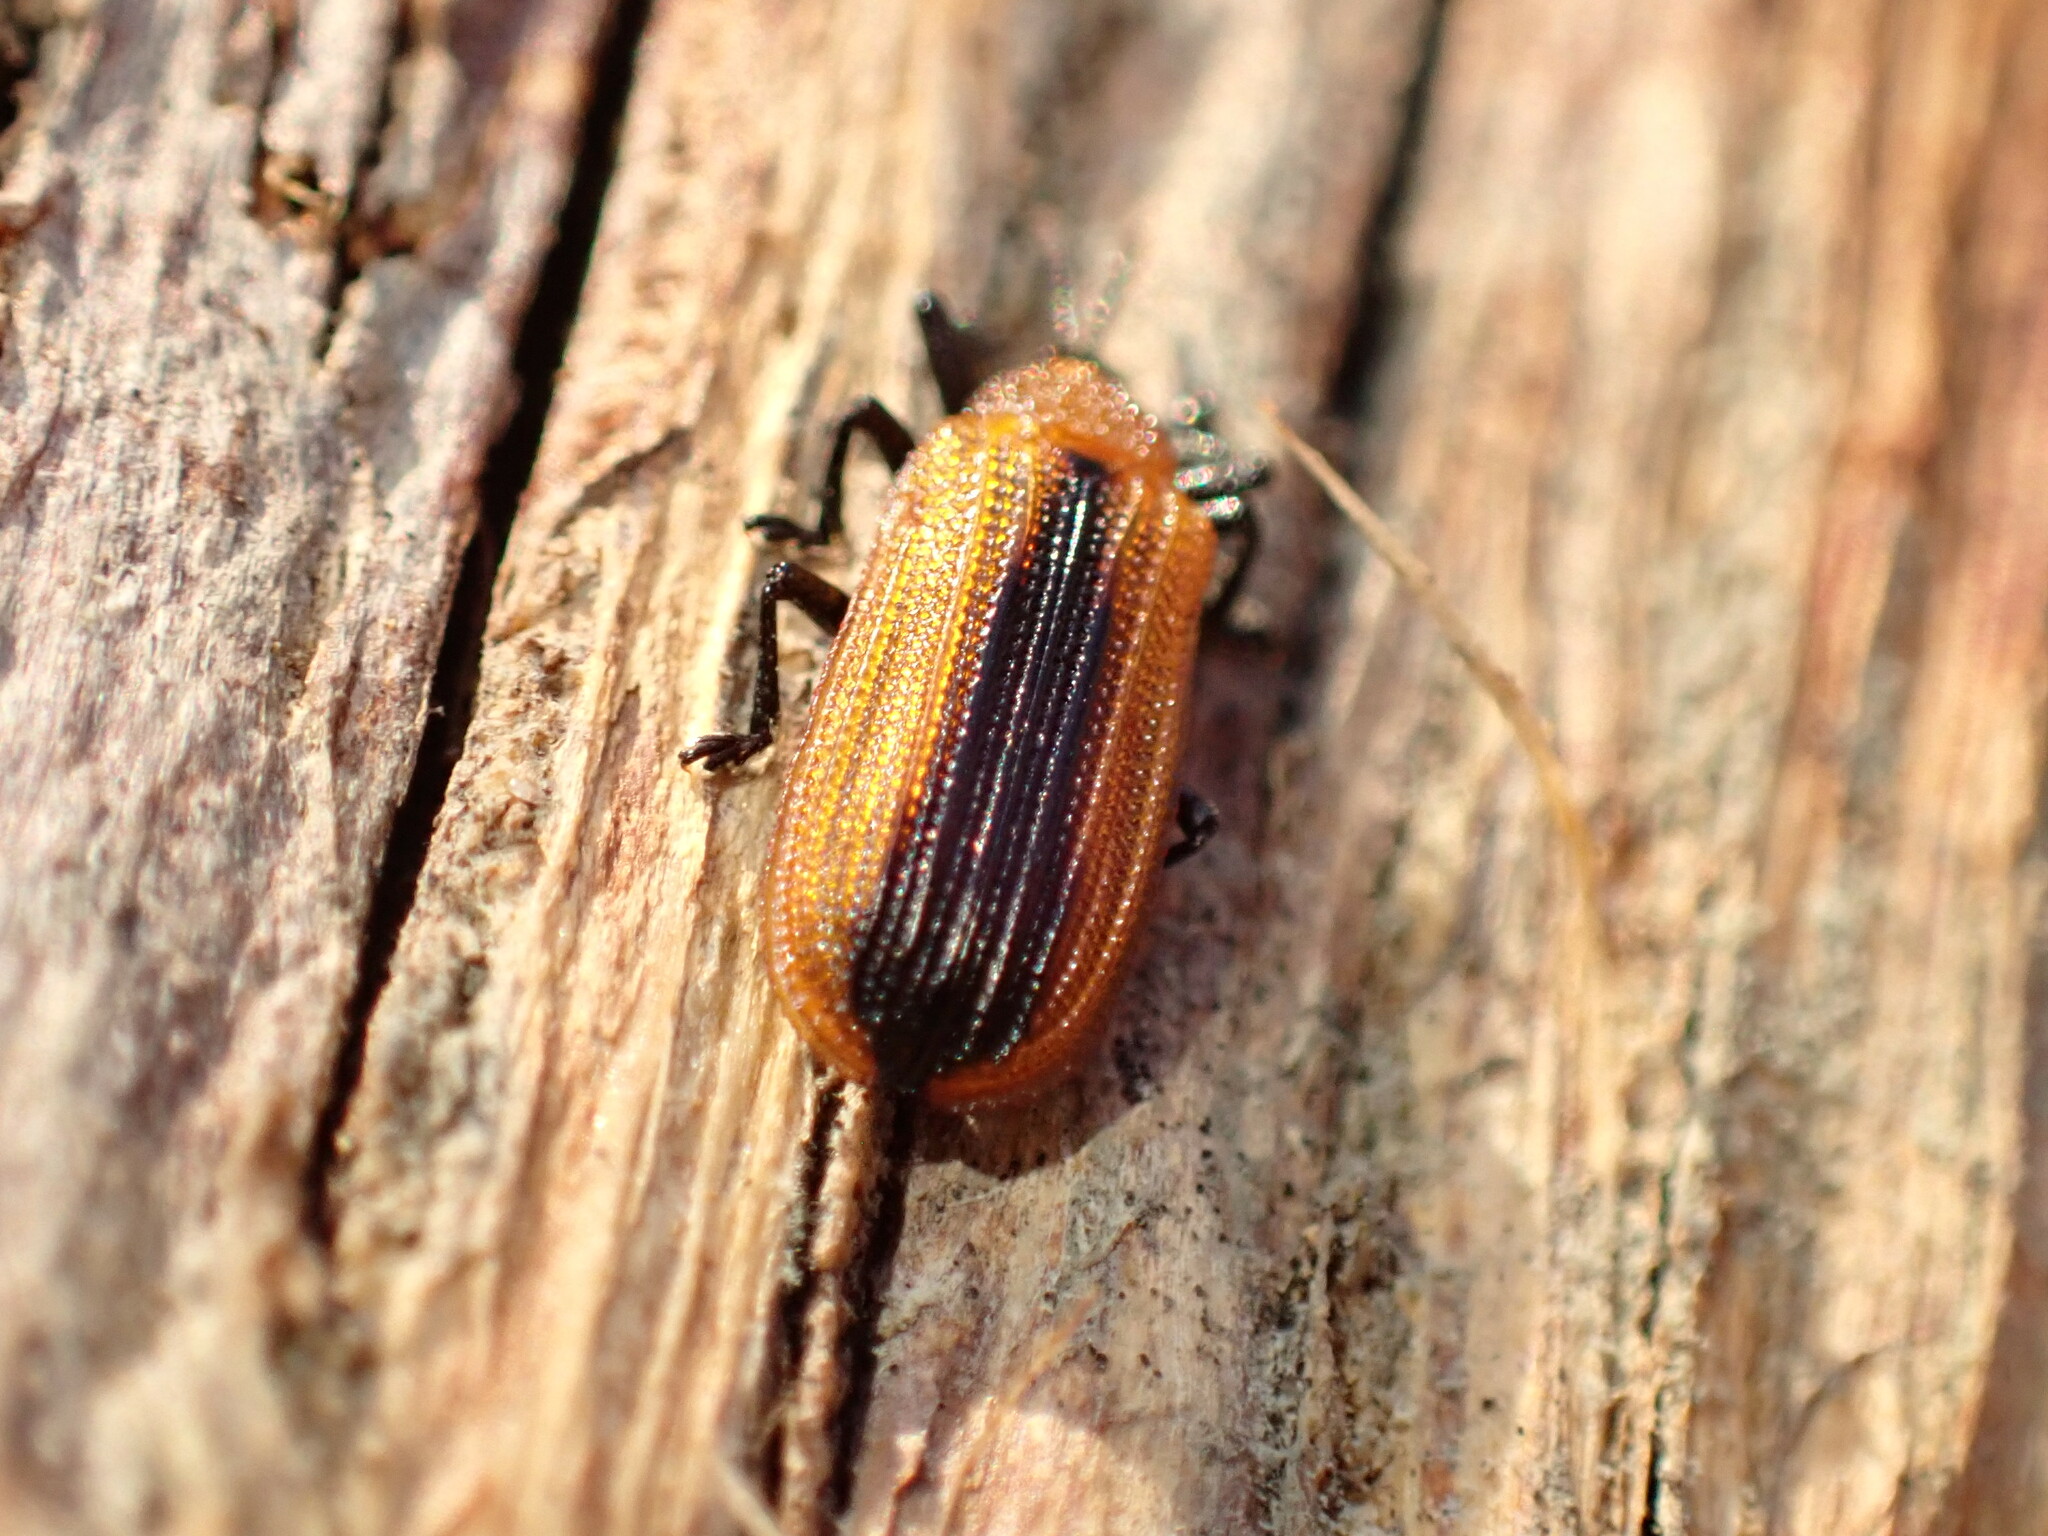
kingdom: Animalia
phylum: Arthropoda
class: Insecta
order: Coleoptera
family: Chrysomelidae
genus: Odontota
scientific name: Odontota dorsalis
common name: Locust leaf-miner beetle
